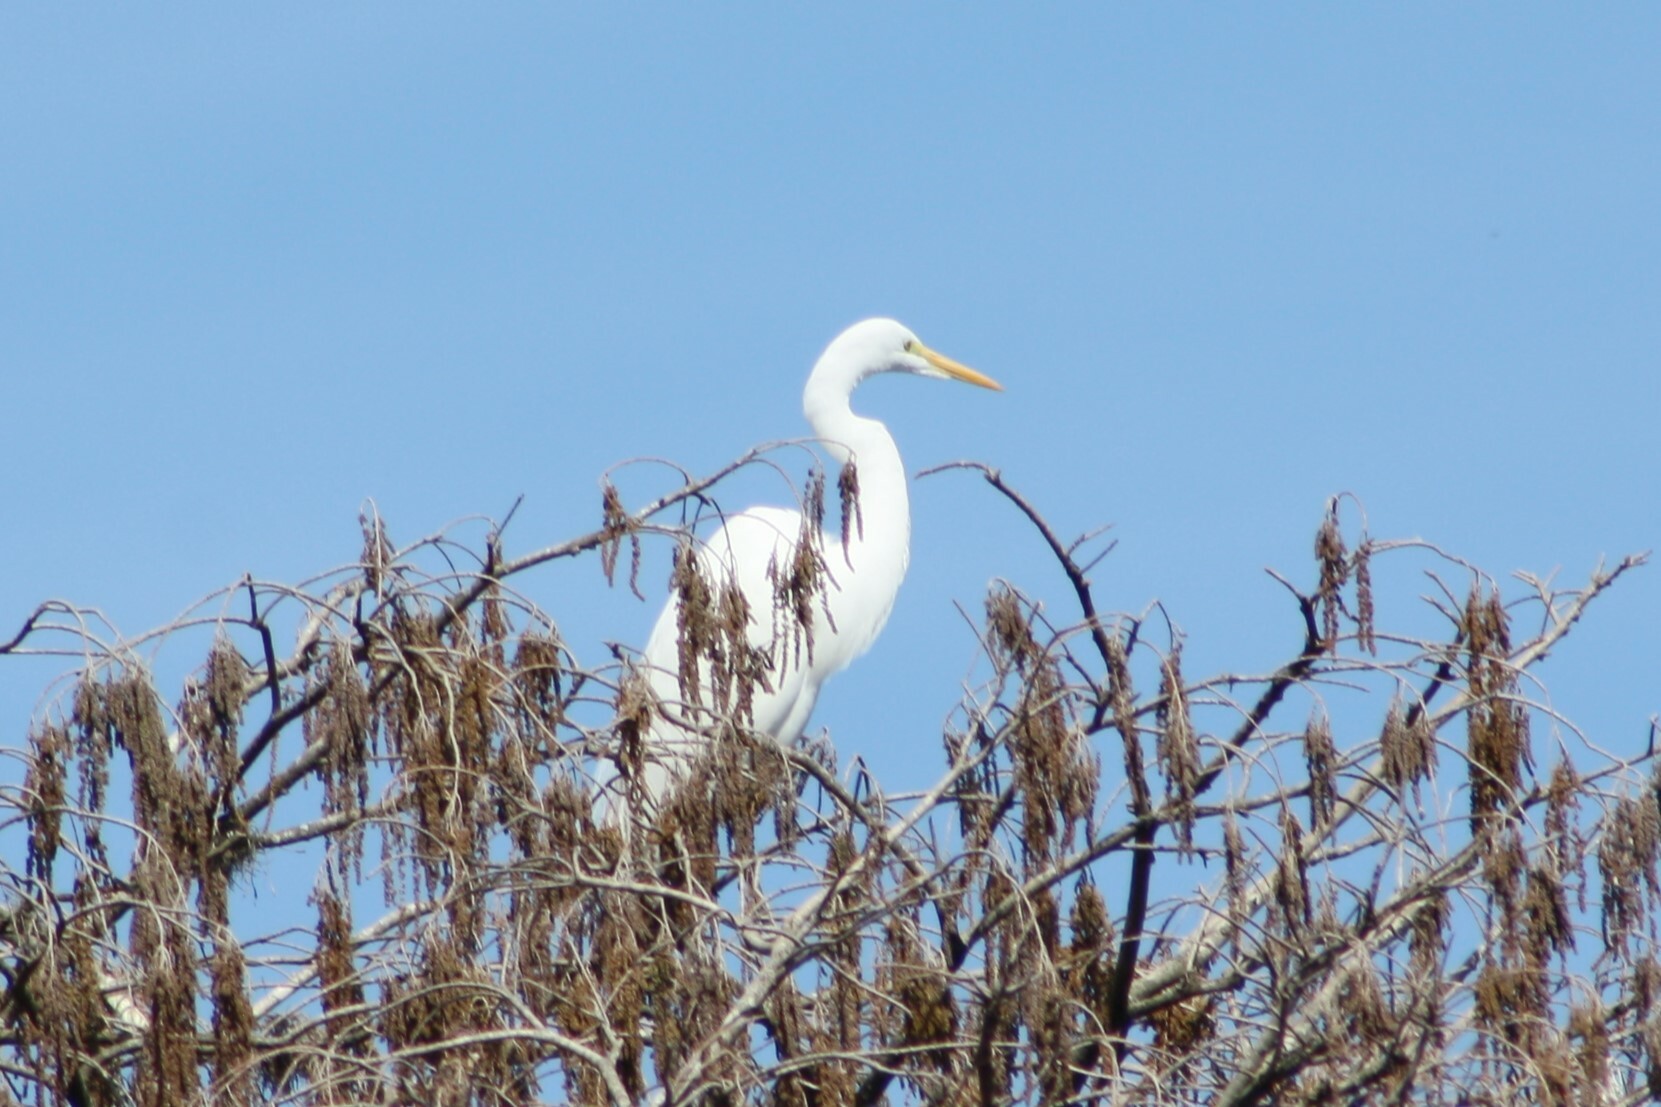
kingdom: Animalia
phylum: Chordata
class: Aves
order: Pelecaniformes
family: Ardeidae
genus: Ardea
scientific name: Ardea alba
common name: Great egret
